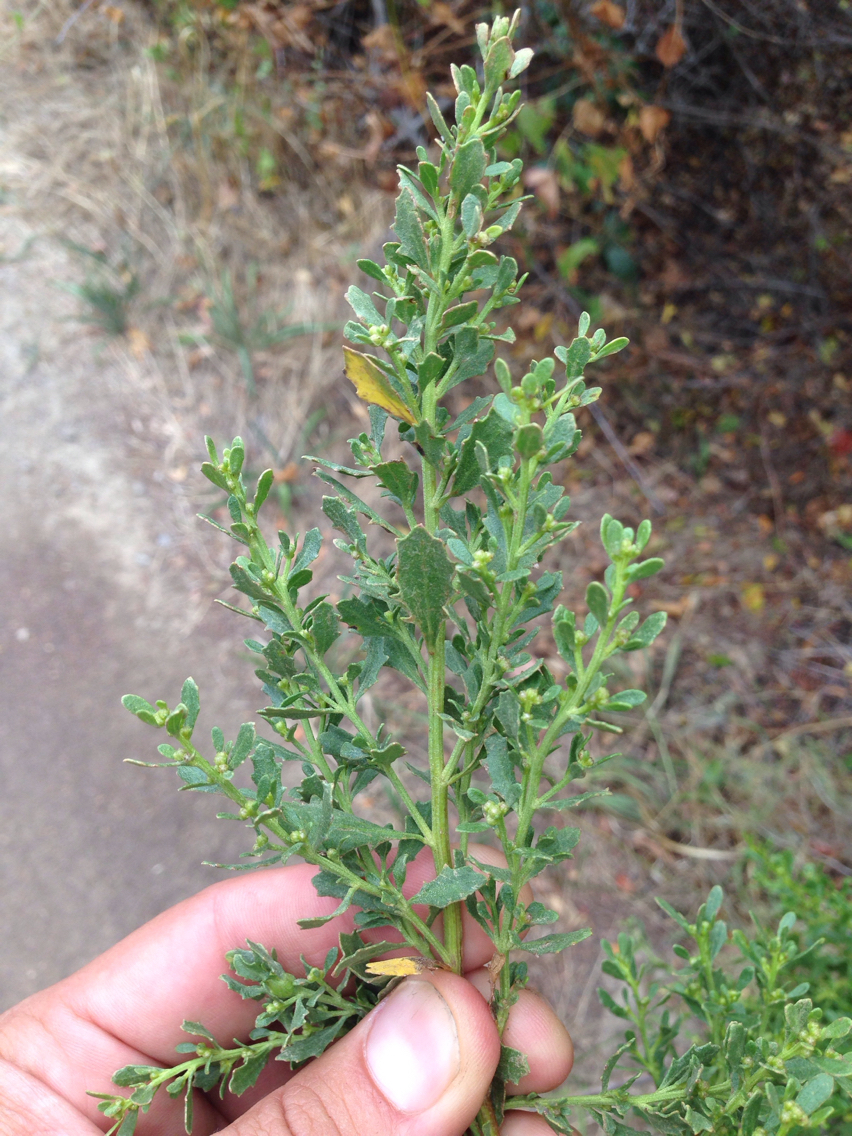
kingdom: Plantae
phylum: Tracheophyta
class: Magnoliopsida
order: Asterales
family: Asteraceae
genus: Baccharis
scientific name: Baccharis pilularis
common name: Coyotebrush
